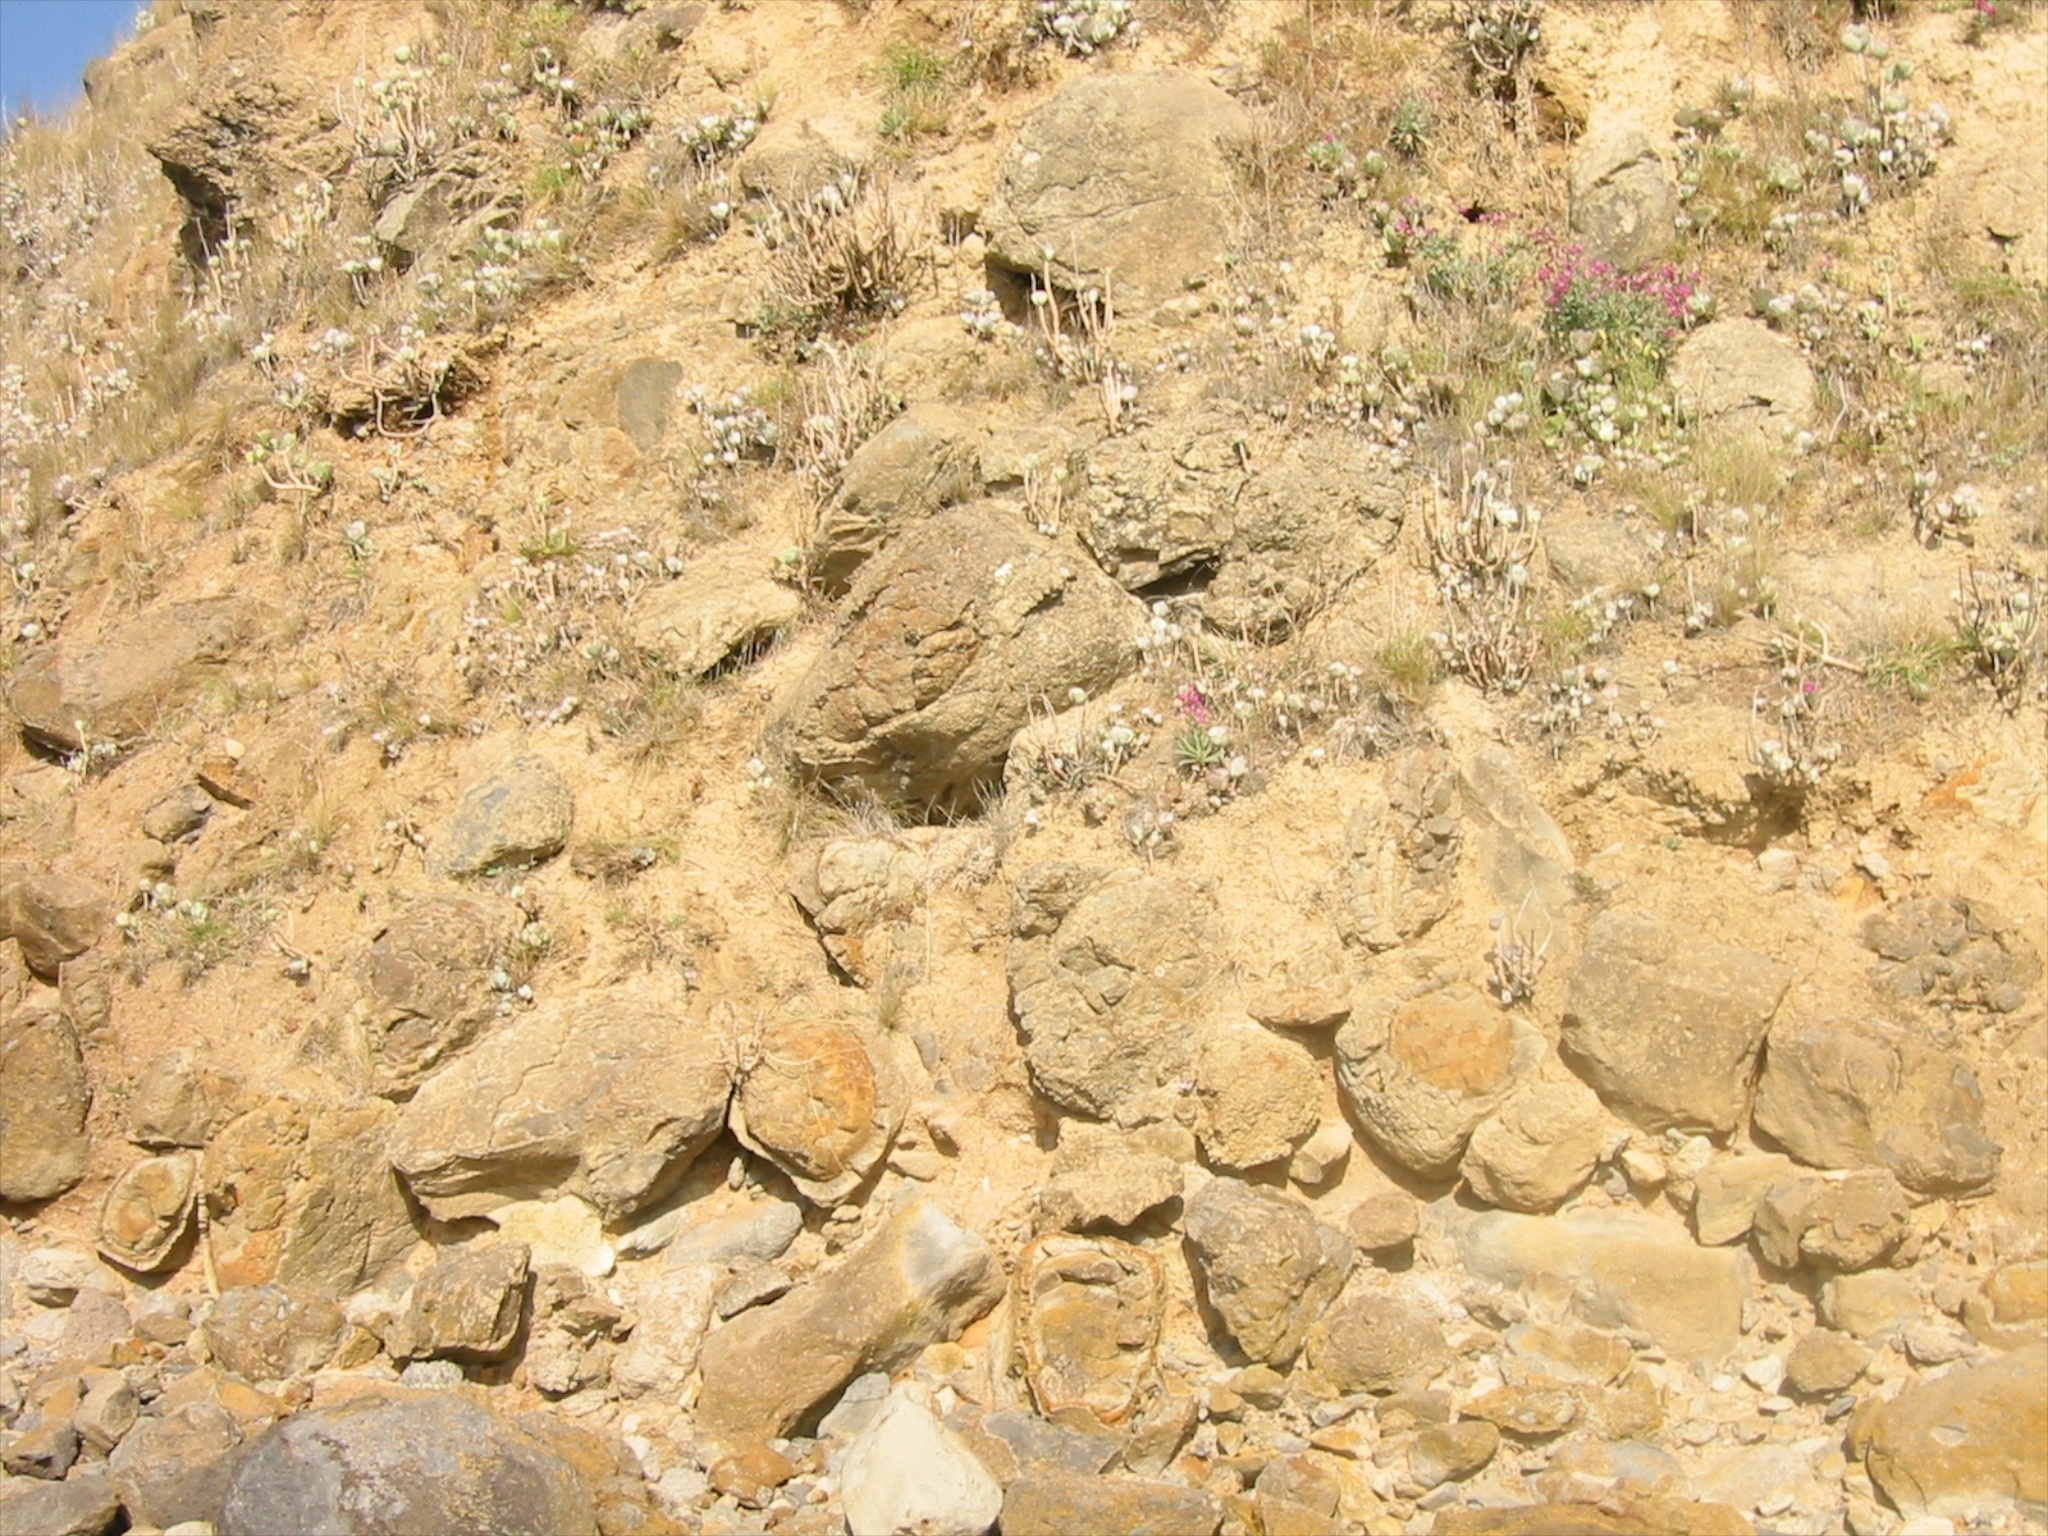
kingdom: Plantae
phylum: Tracheophyta
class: Magnoliopsida
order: Brassicales
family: Brassicaceae
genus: Matthiola
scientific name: Matthiola incana
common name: Hoary stock
